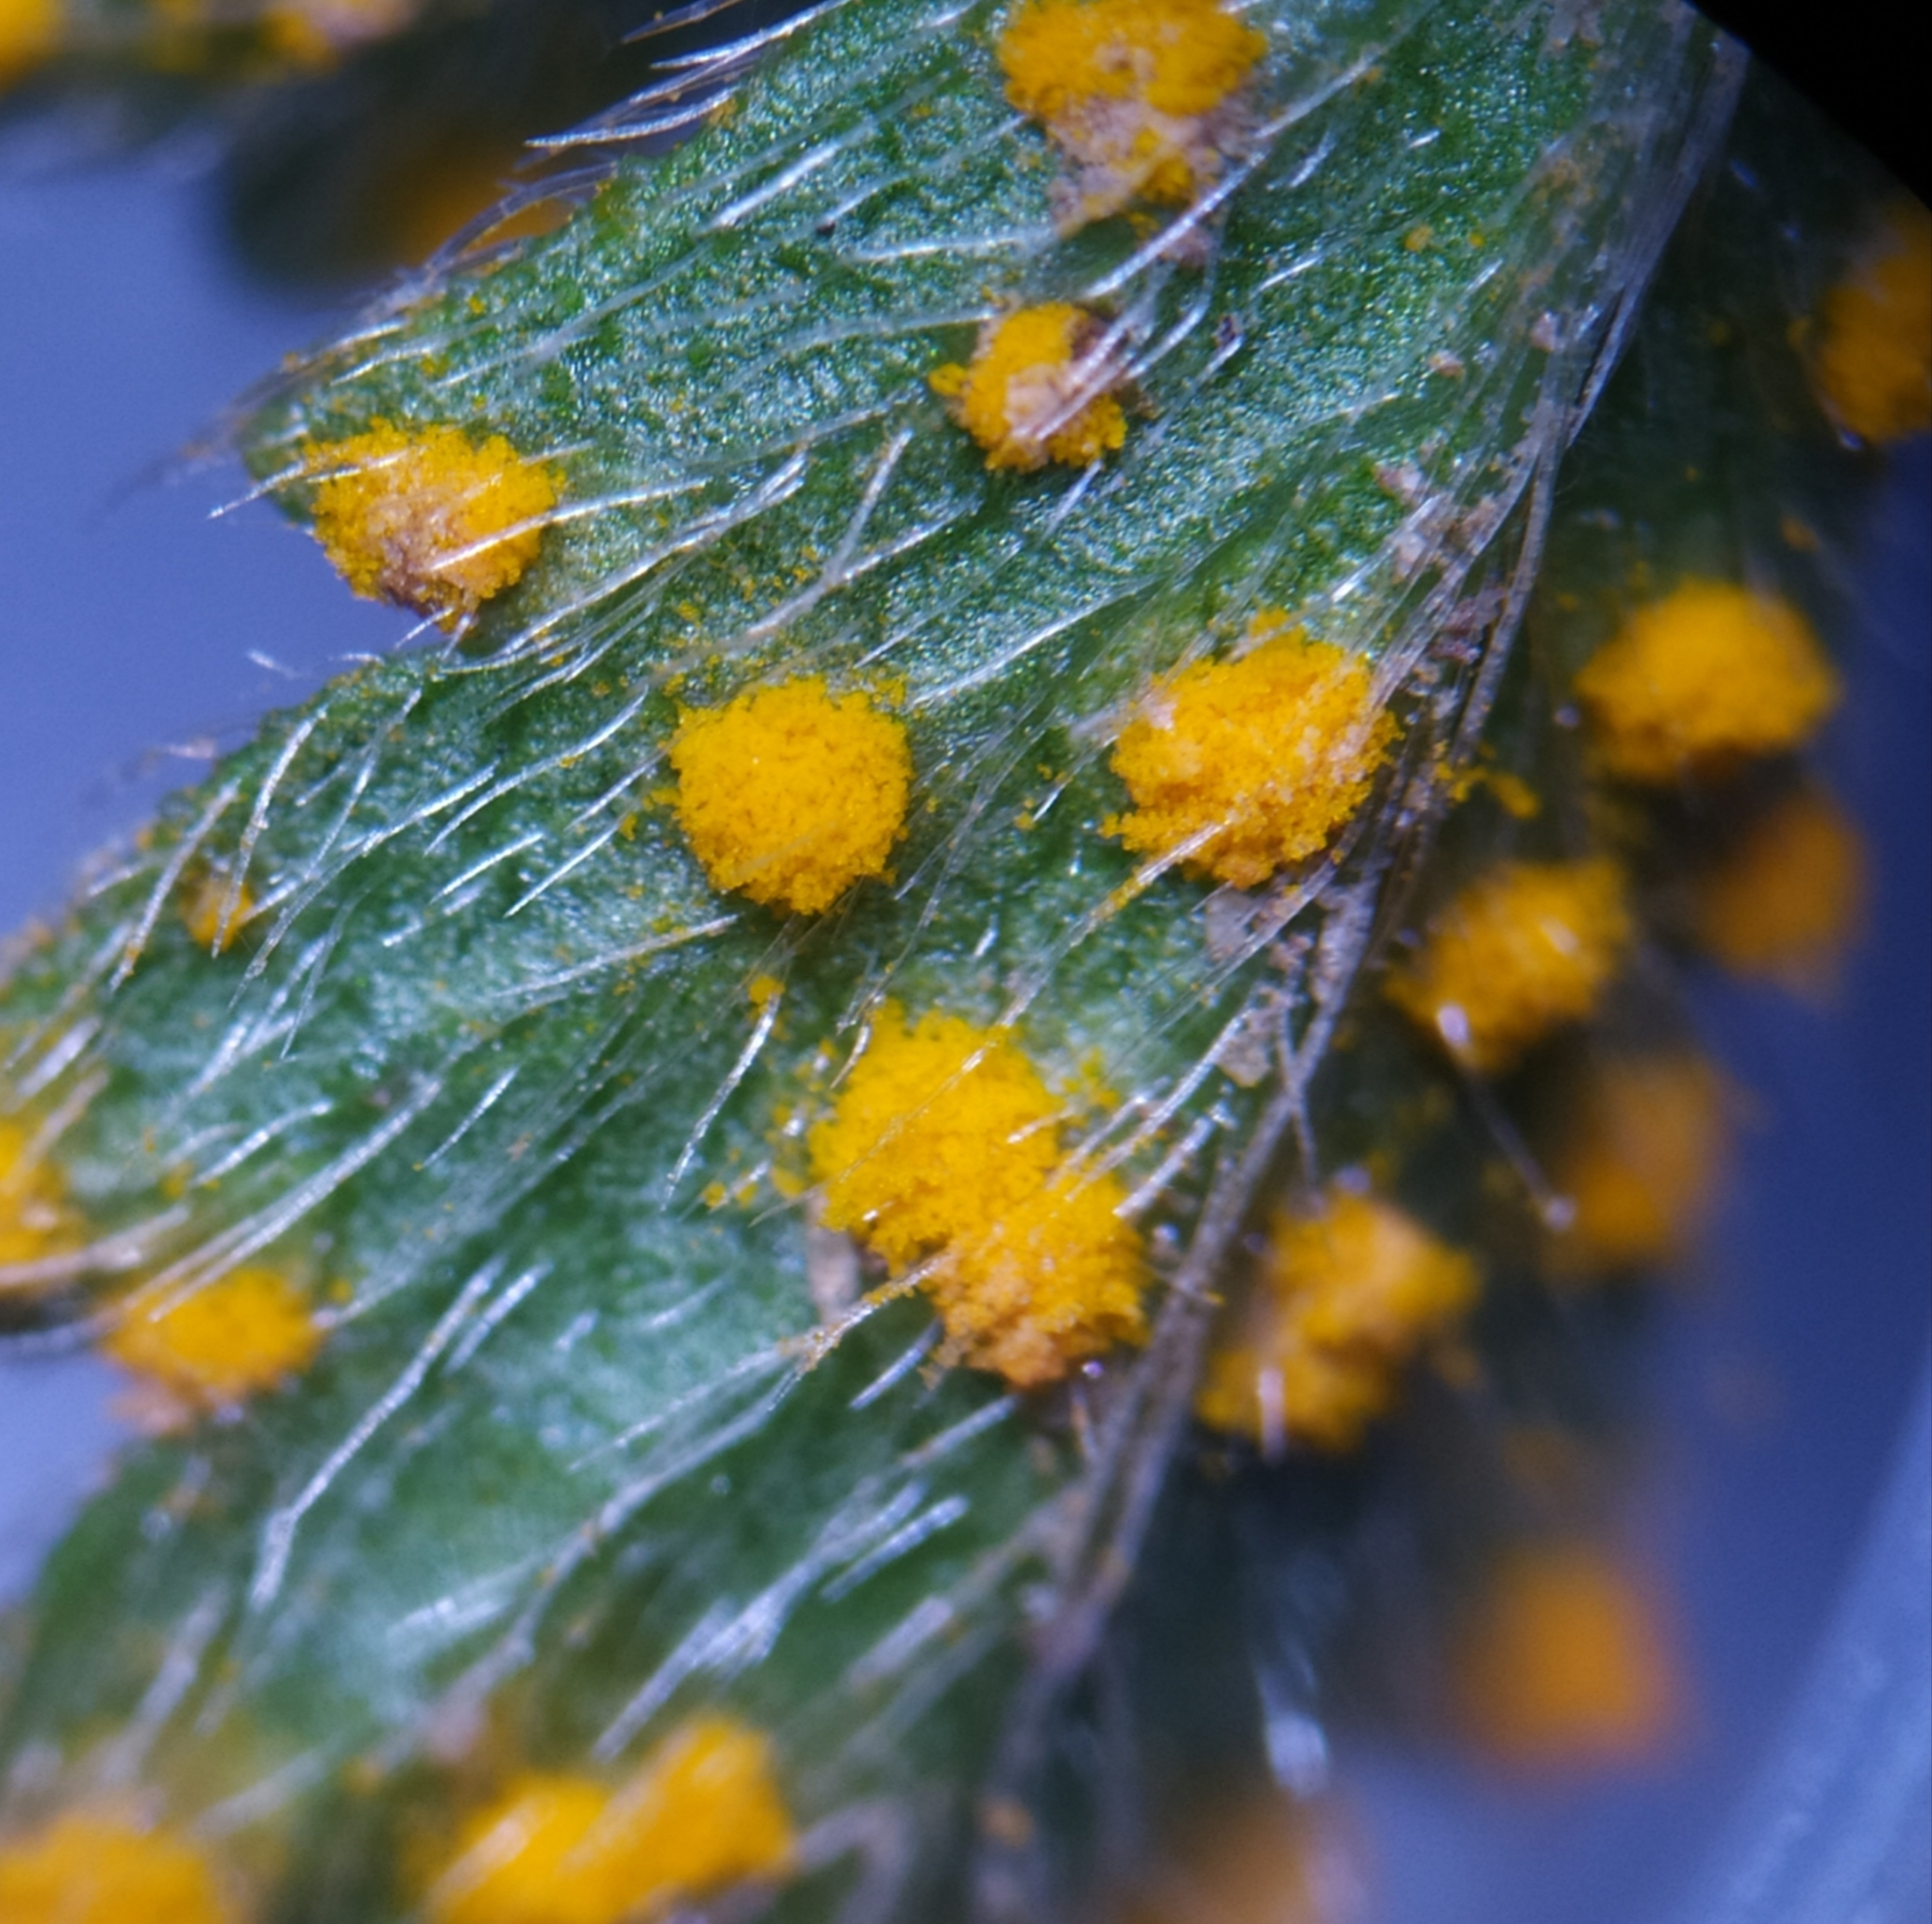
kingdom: Fungi
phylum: Basidiomycota
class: Pucciniomycetes
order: Pucciniales
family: Phragmidiaceae
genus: Phragmidium
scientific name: Phragmidium potentillae
